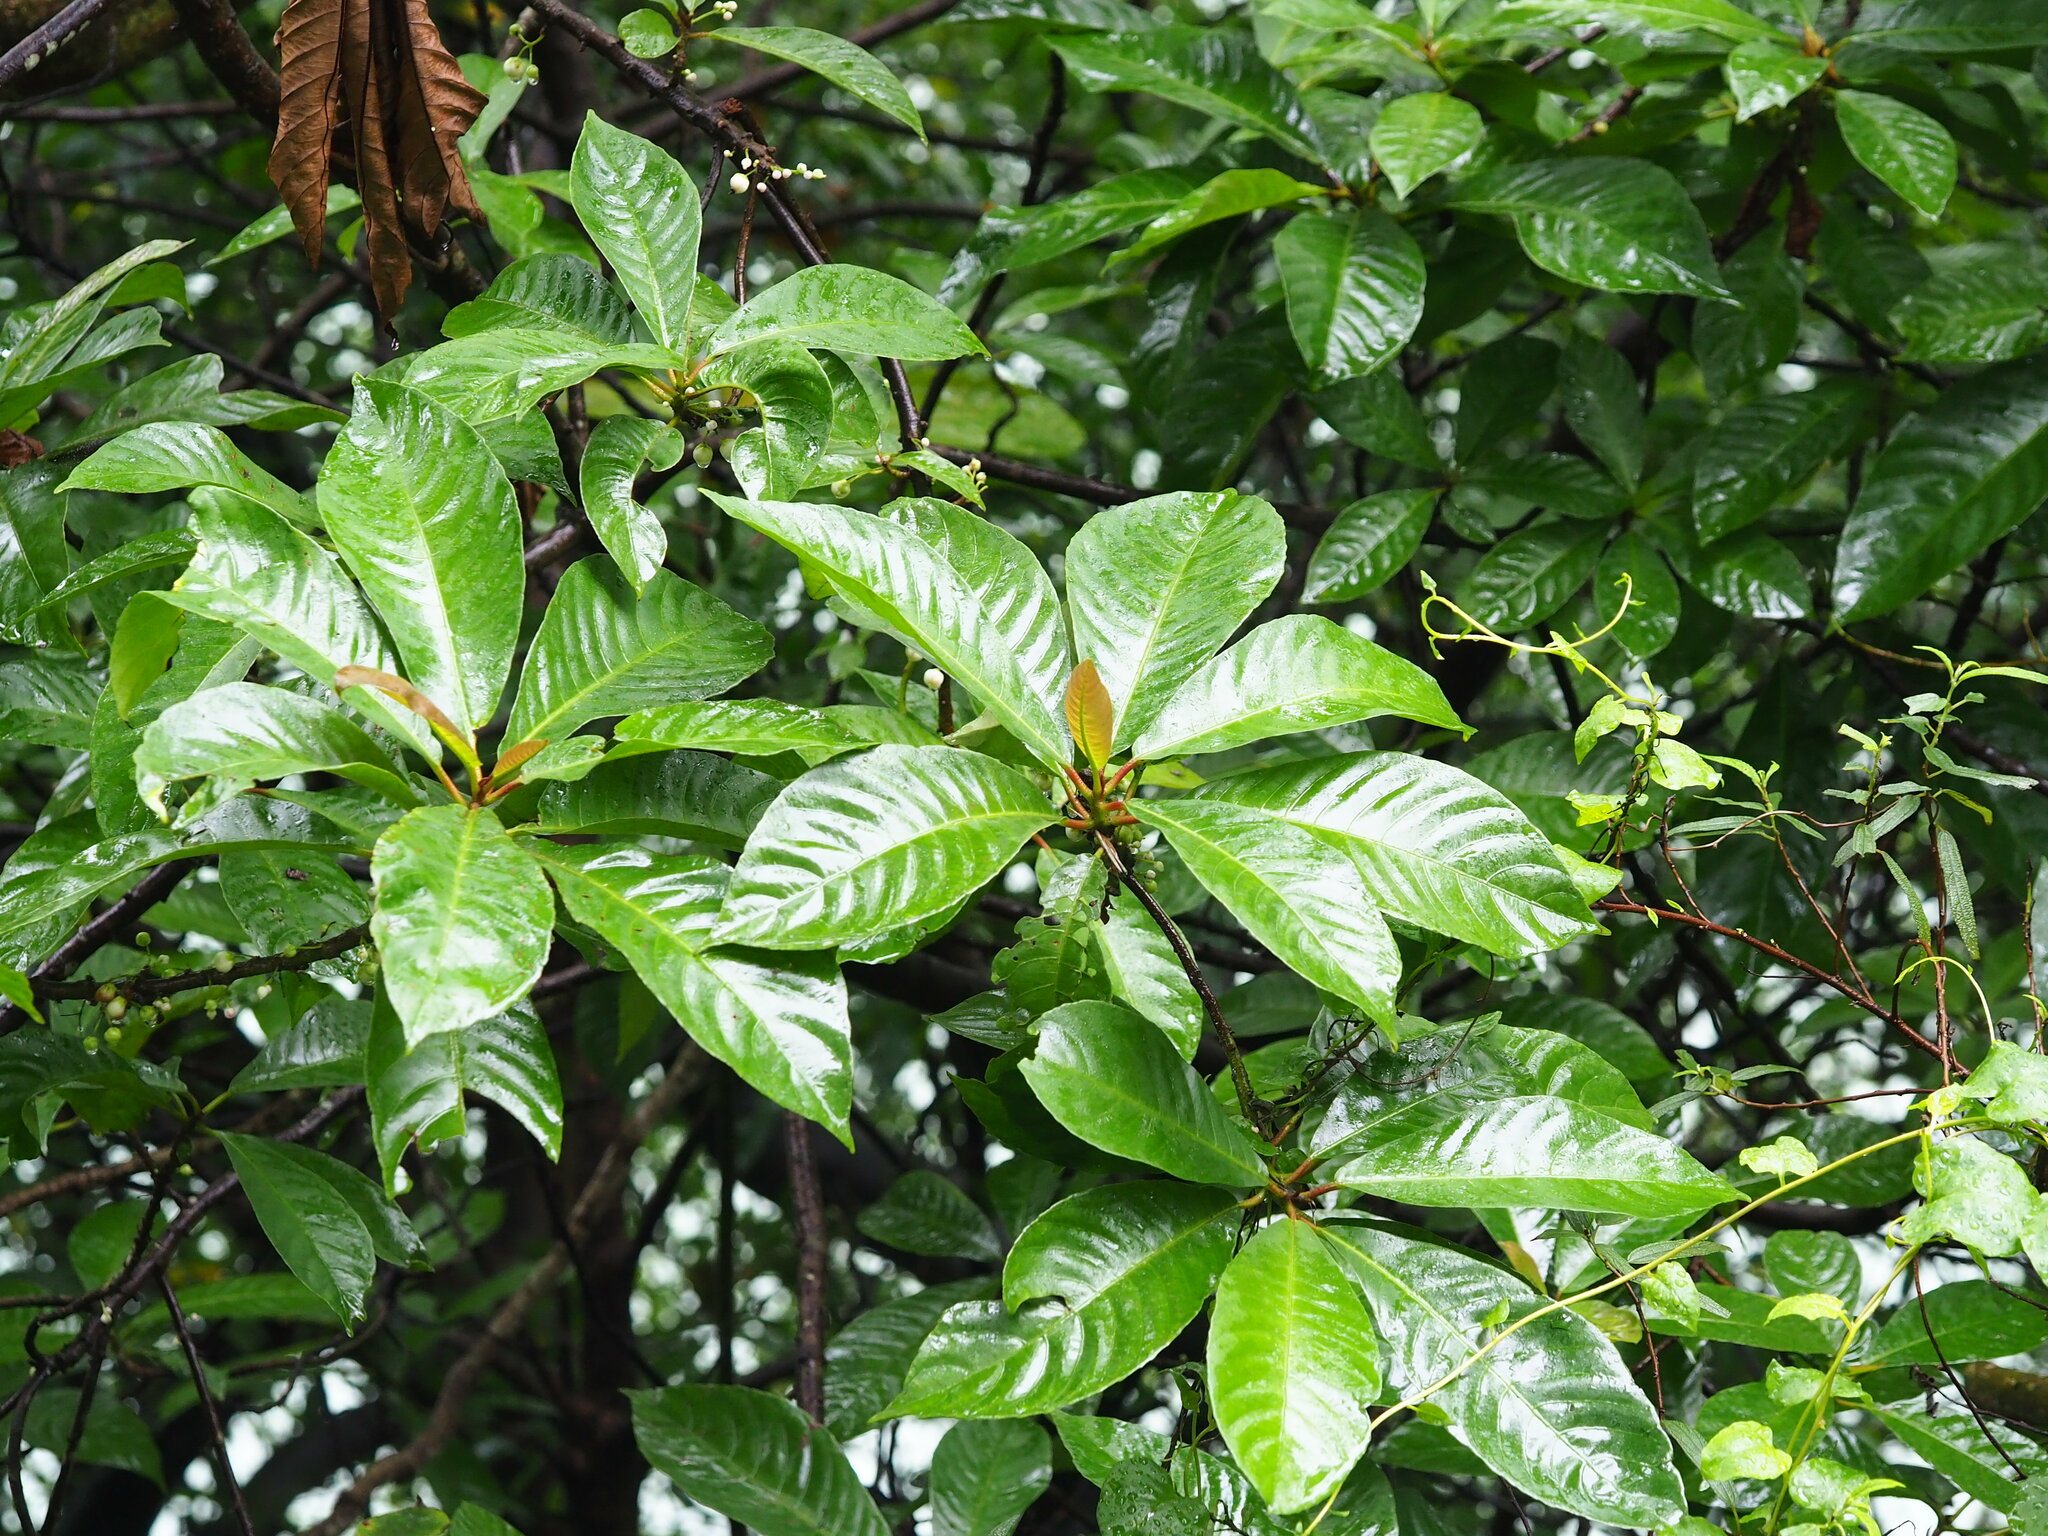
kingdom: Plantae
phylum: Tracheophyta
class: Magnoliopsida
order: Ericales
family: Actinidiaceae
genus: Saurauia
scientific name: Saurauia tristyla
